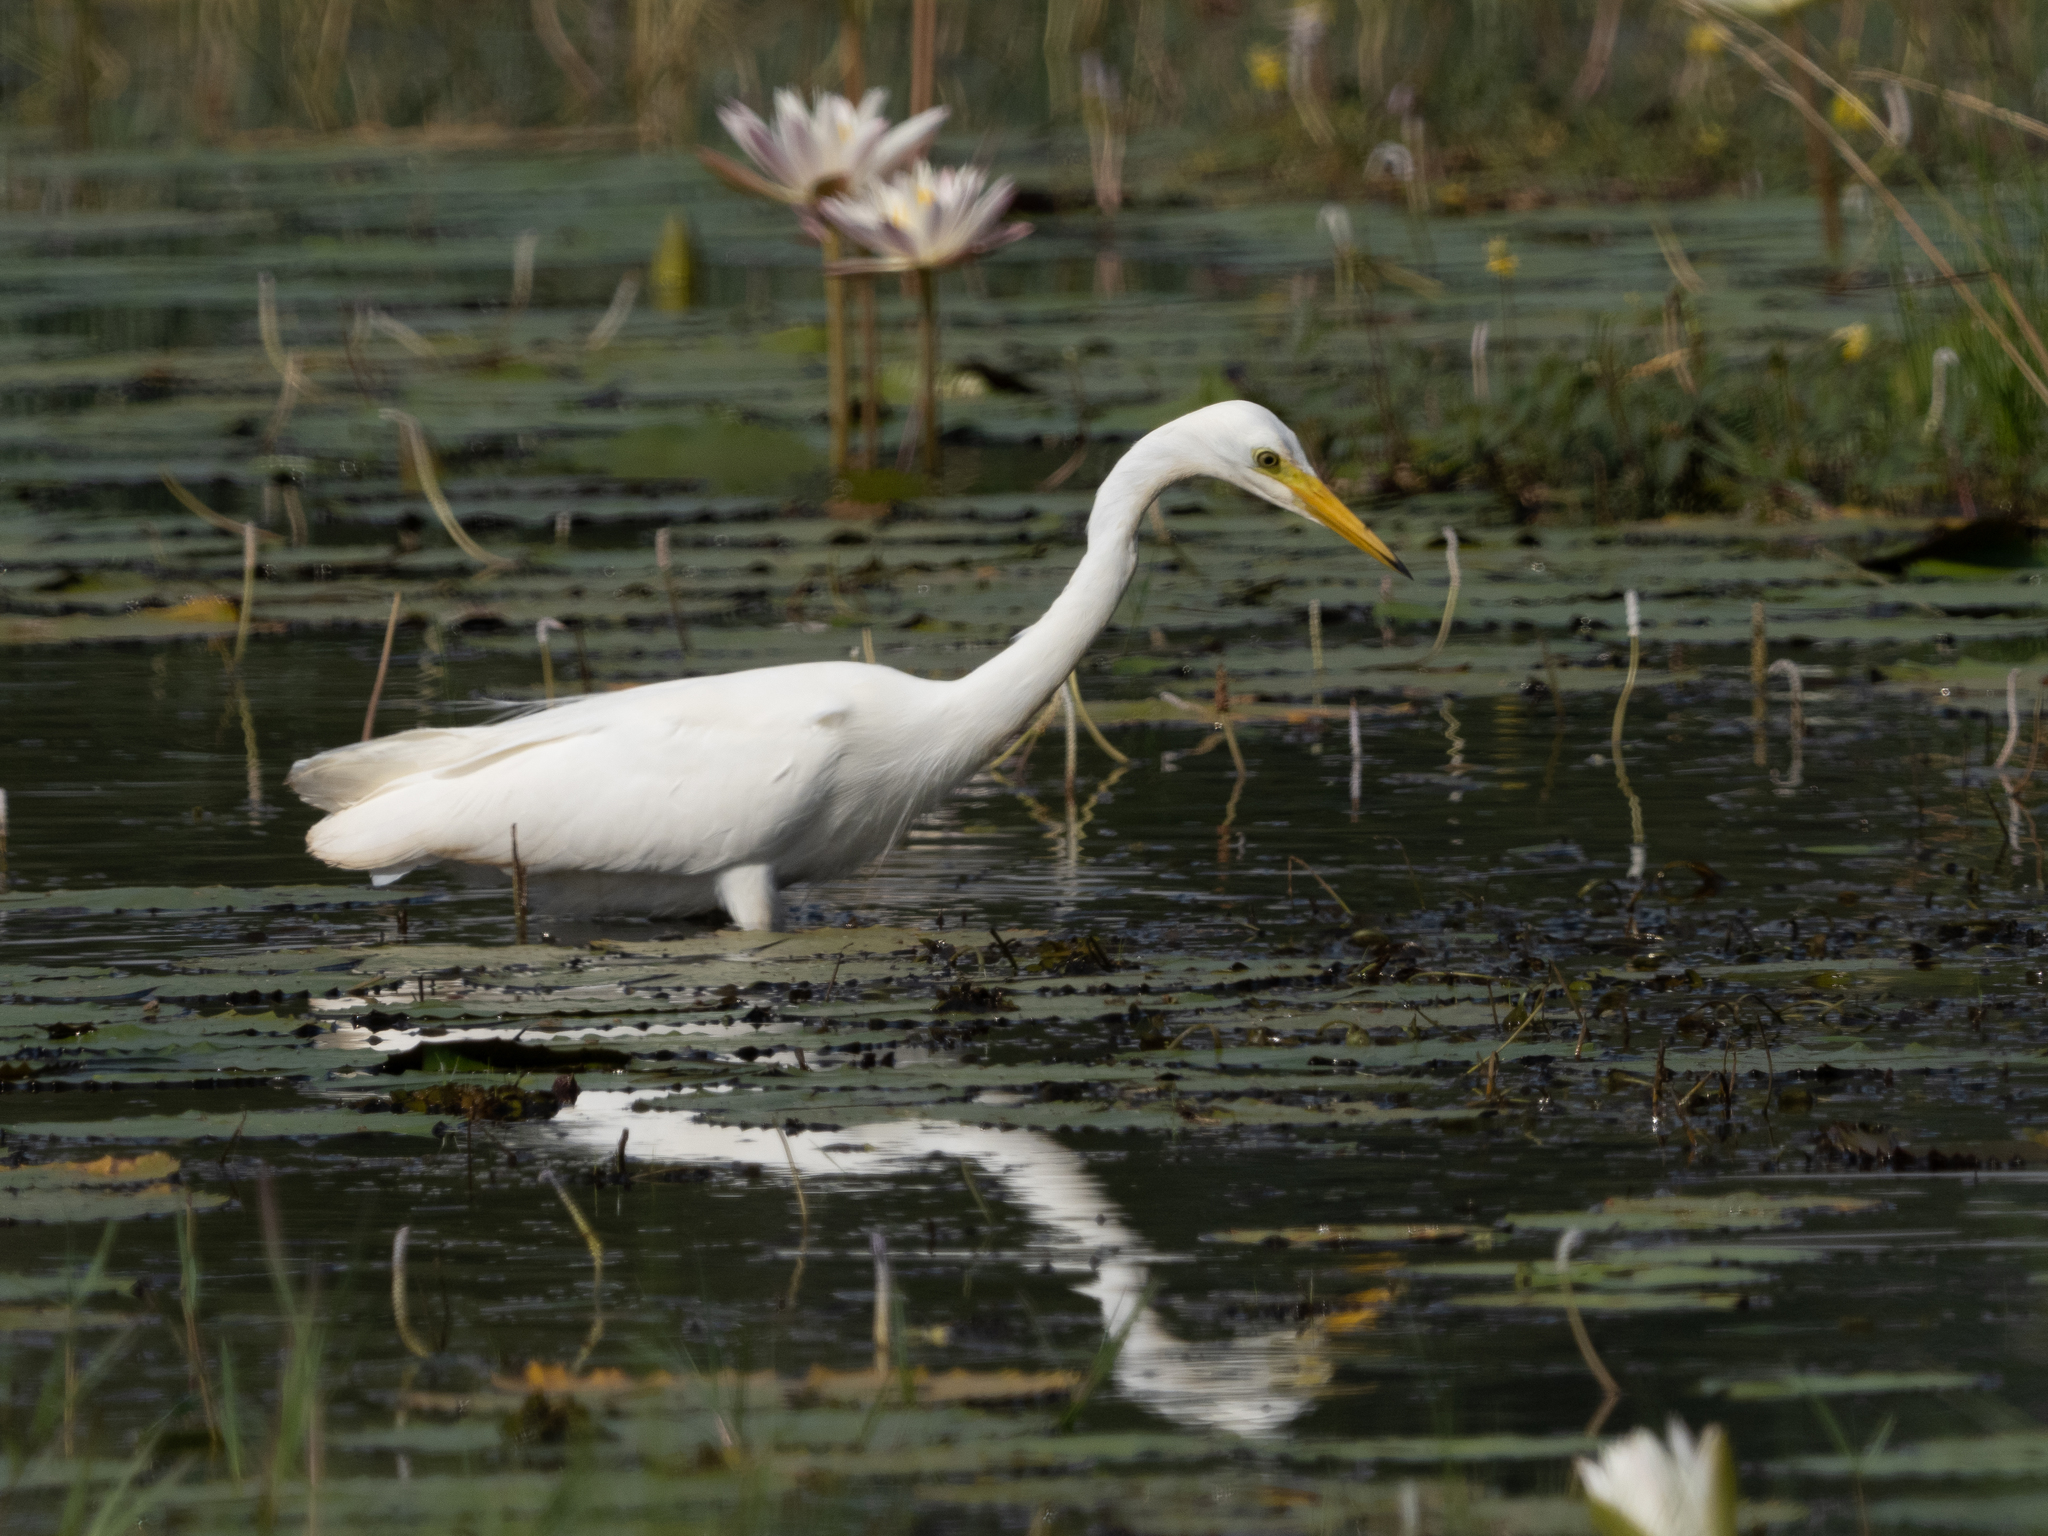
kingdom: Animalia
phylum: Chordata
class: Aves
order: Pelecaniformes
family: Ardeidae
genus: Egretta
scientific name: Egretta intermedia
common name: Intermediate egret
